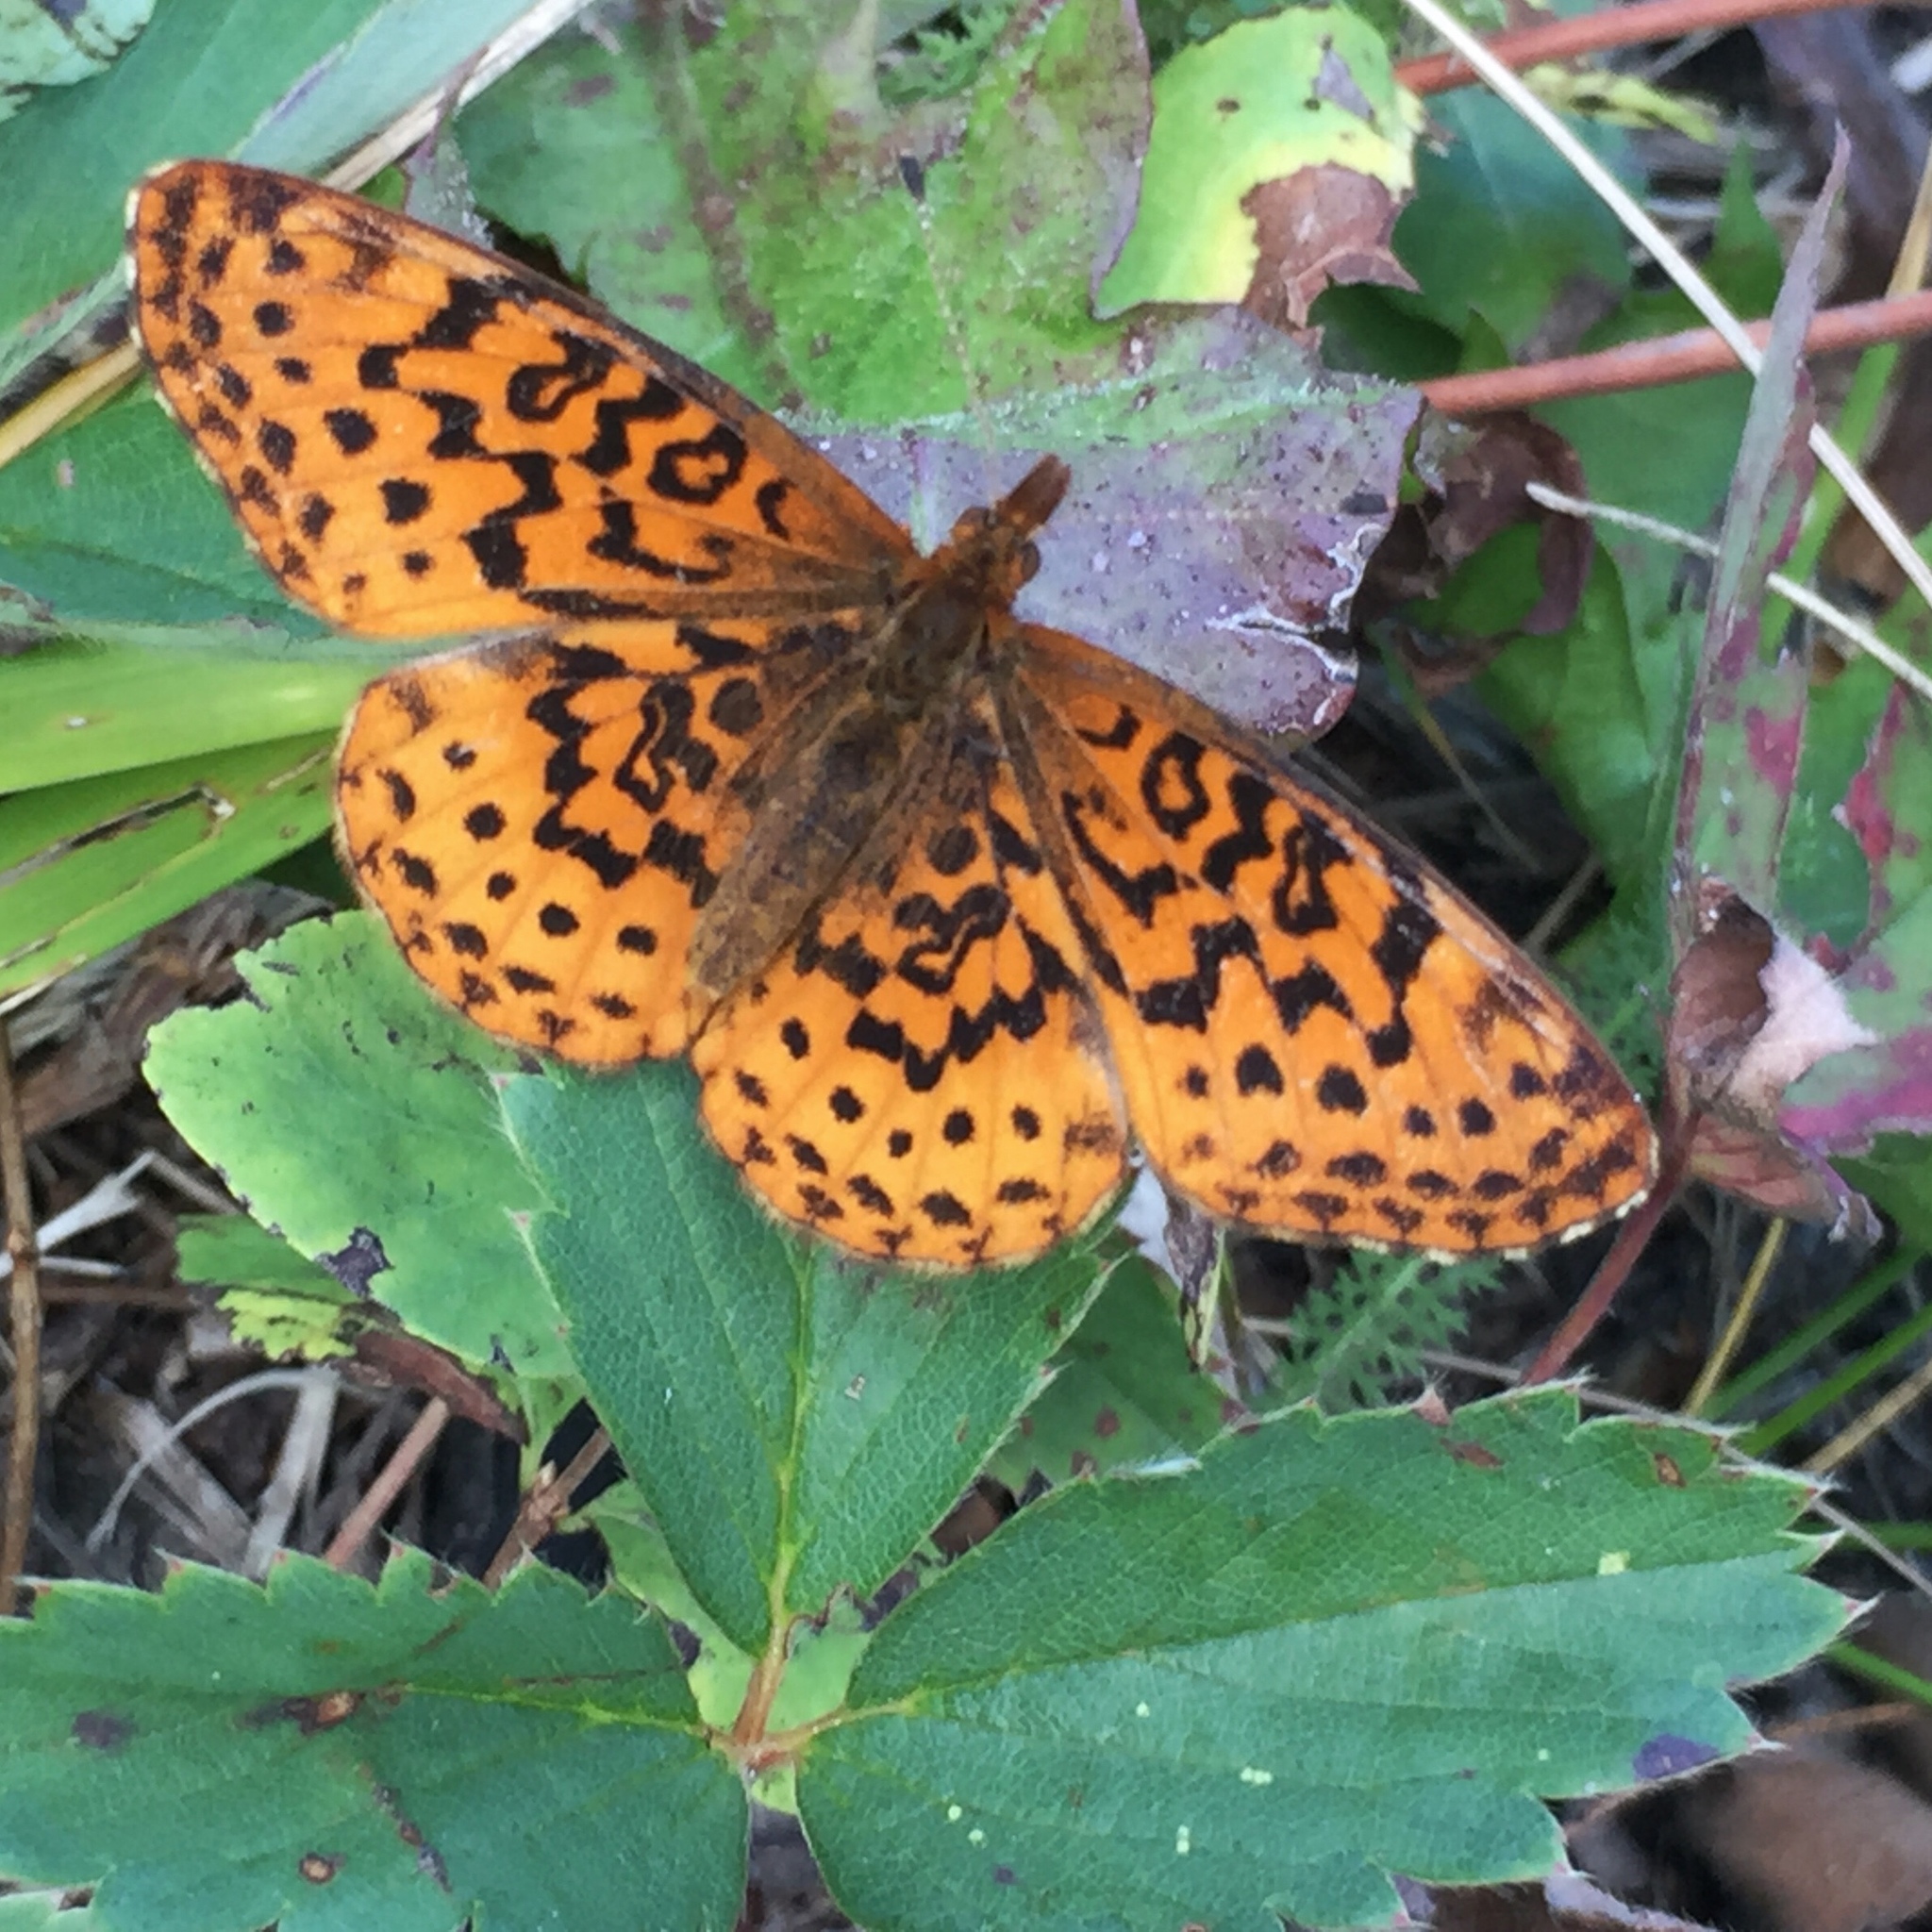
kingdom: Animalia
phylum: Arthropoda
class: Insecta
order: Lepidoptera
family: Nymphalidae
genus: Clossiana
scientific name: Clossiana toddi
